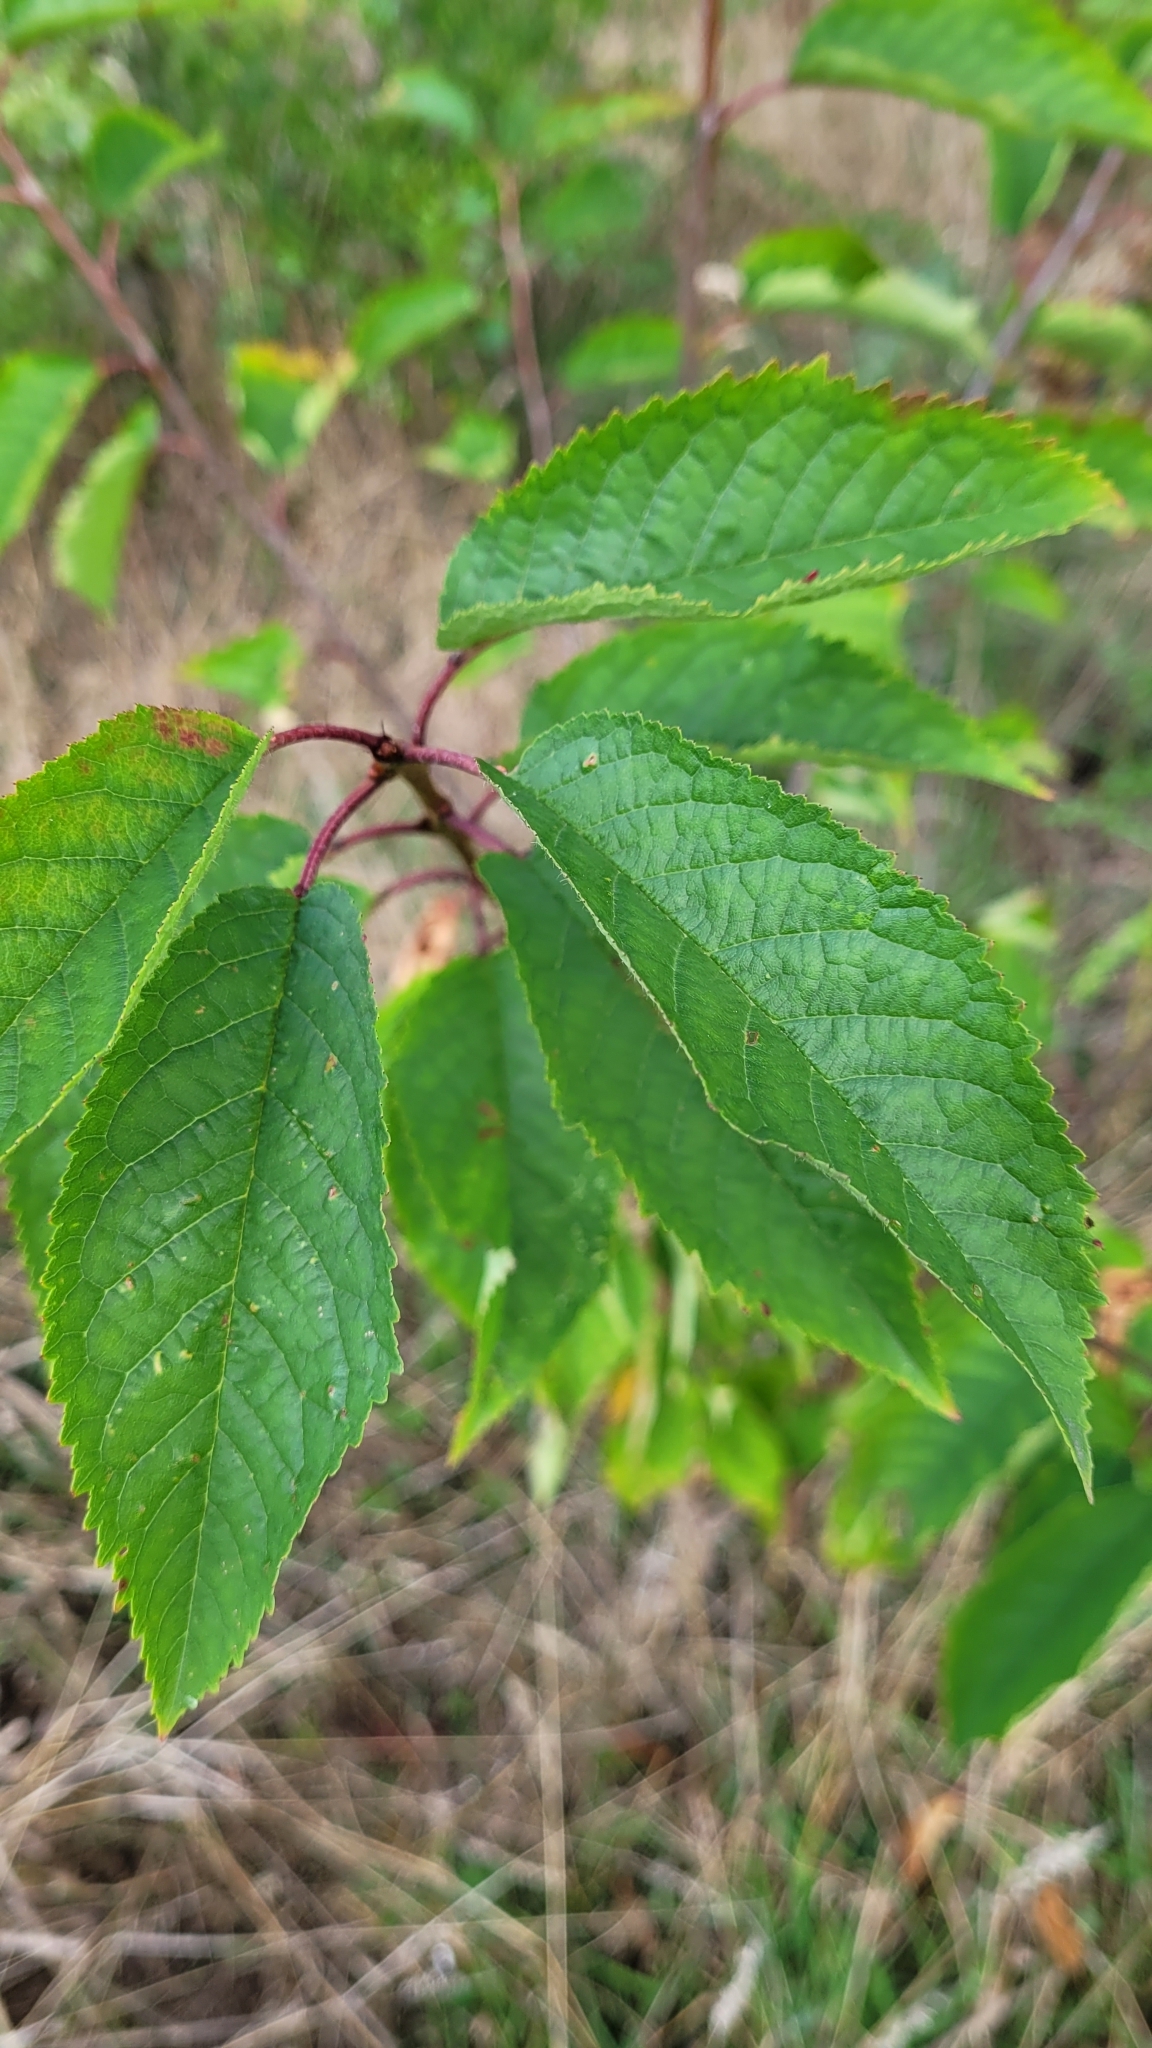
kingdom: Plantae
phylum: Tracheophyta
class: Magnoliopsida
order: Rosales
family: Rosaceae
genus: Prunus
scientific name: Prunus avium
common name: Sweet cherry
